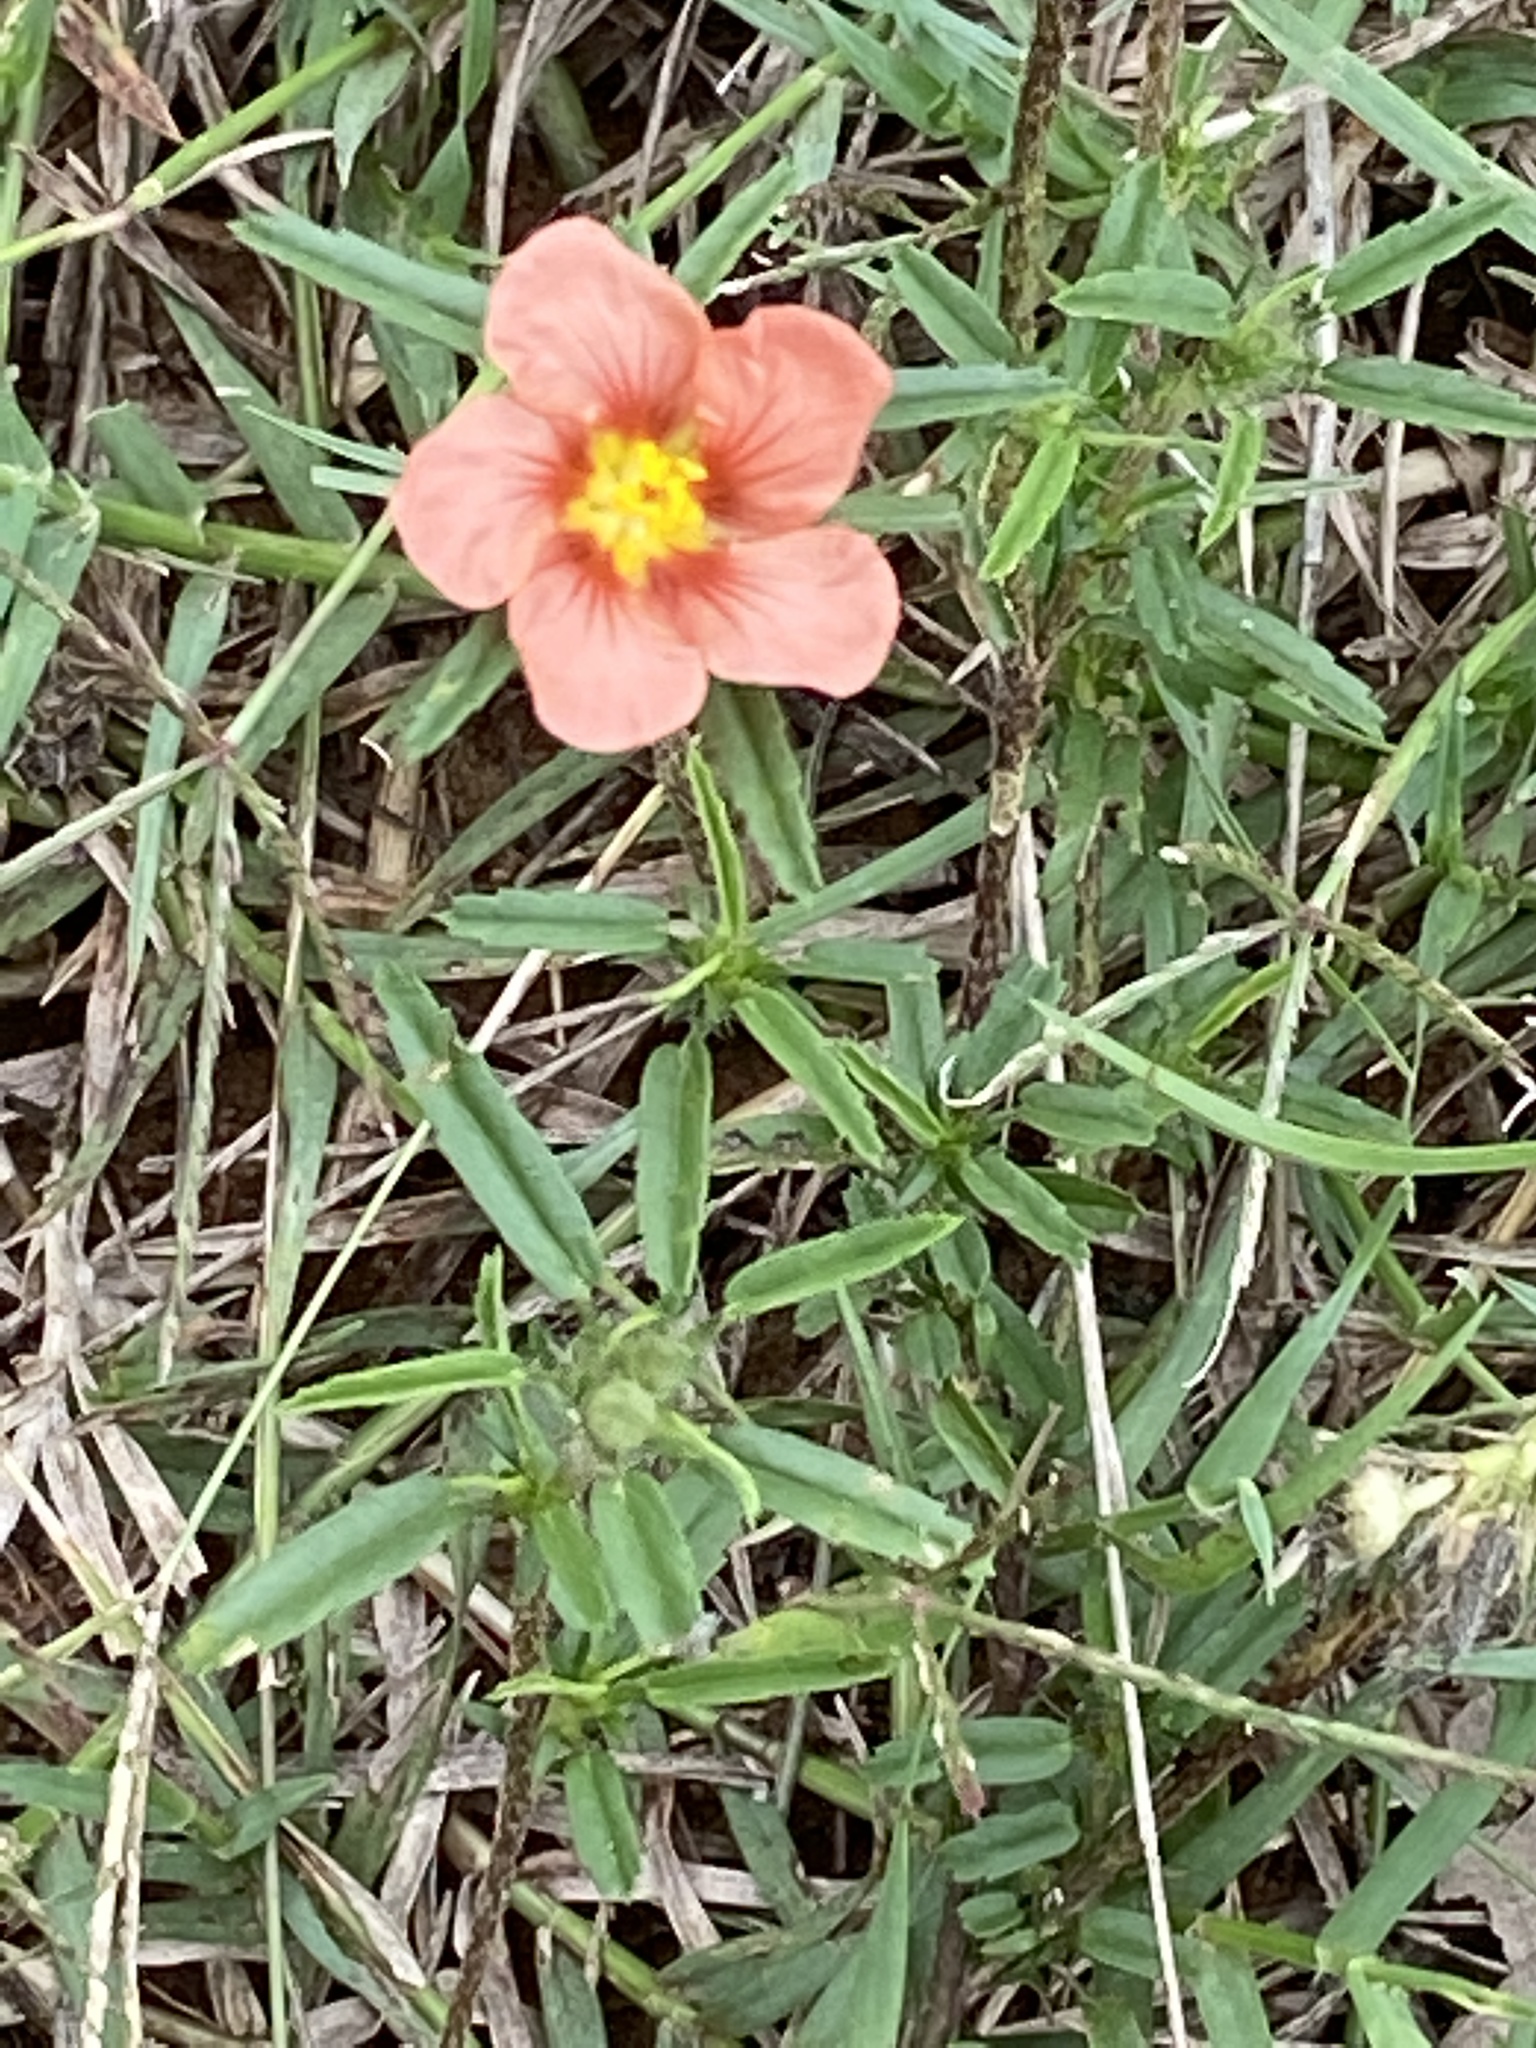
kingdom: Plantae
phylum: Tracheophyta
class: Magnoliopsida
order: Malvales
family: Malvaceae
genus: Sida
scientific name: Sida ciliaris
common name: Bracted fanpetals
